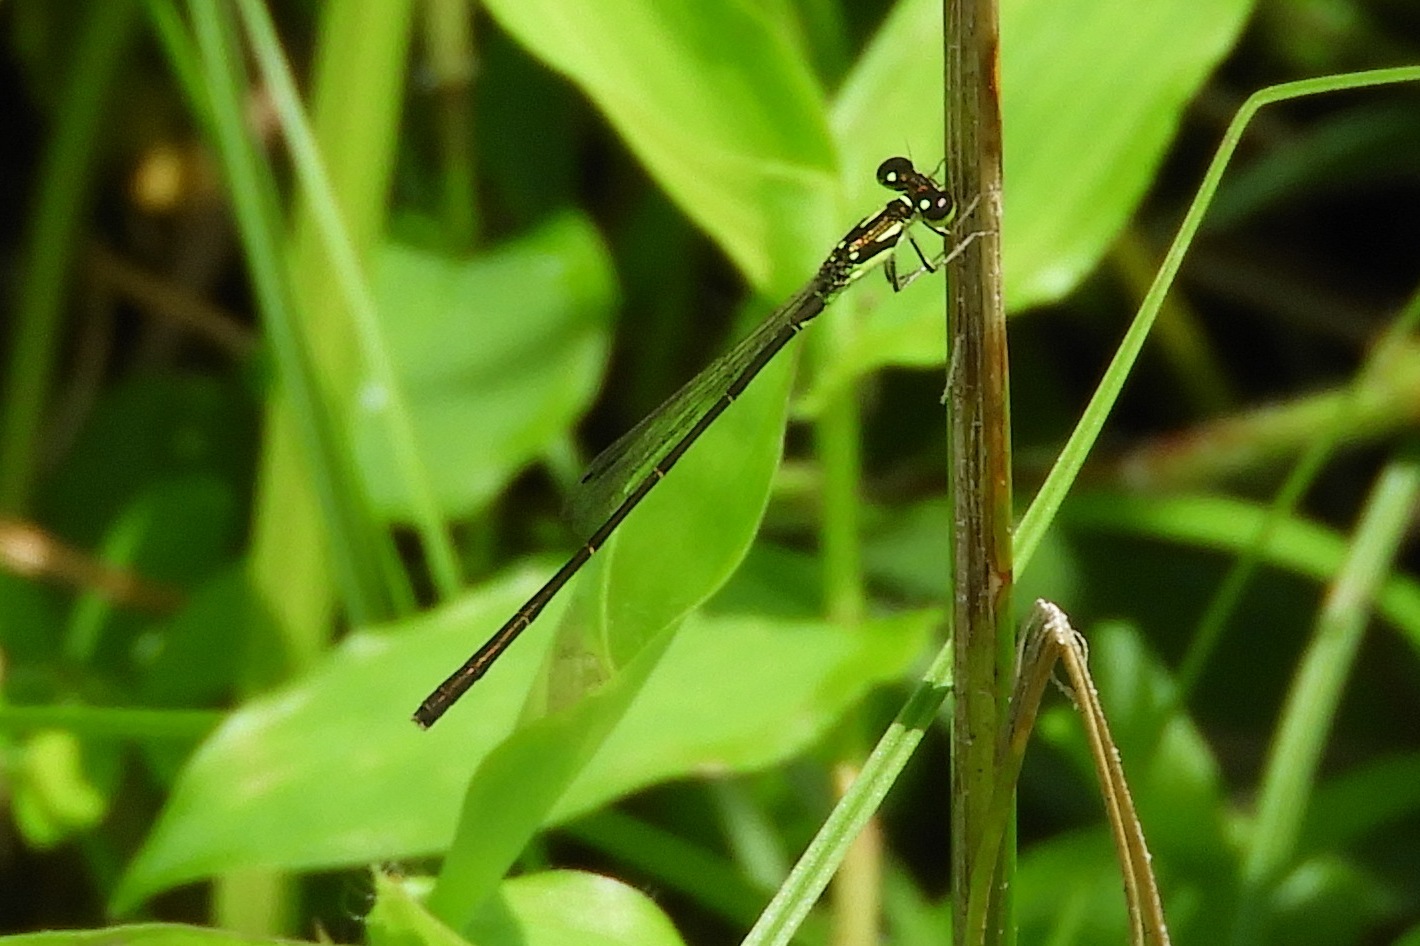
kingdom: Animalia
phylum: Arthropoda
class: Insecta
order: Odonata
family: Coenagrionidae
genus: Ischnura
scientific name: Ischnura posita
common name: Fragile forktail
